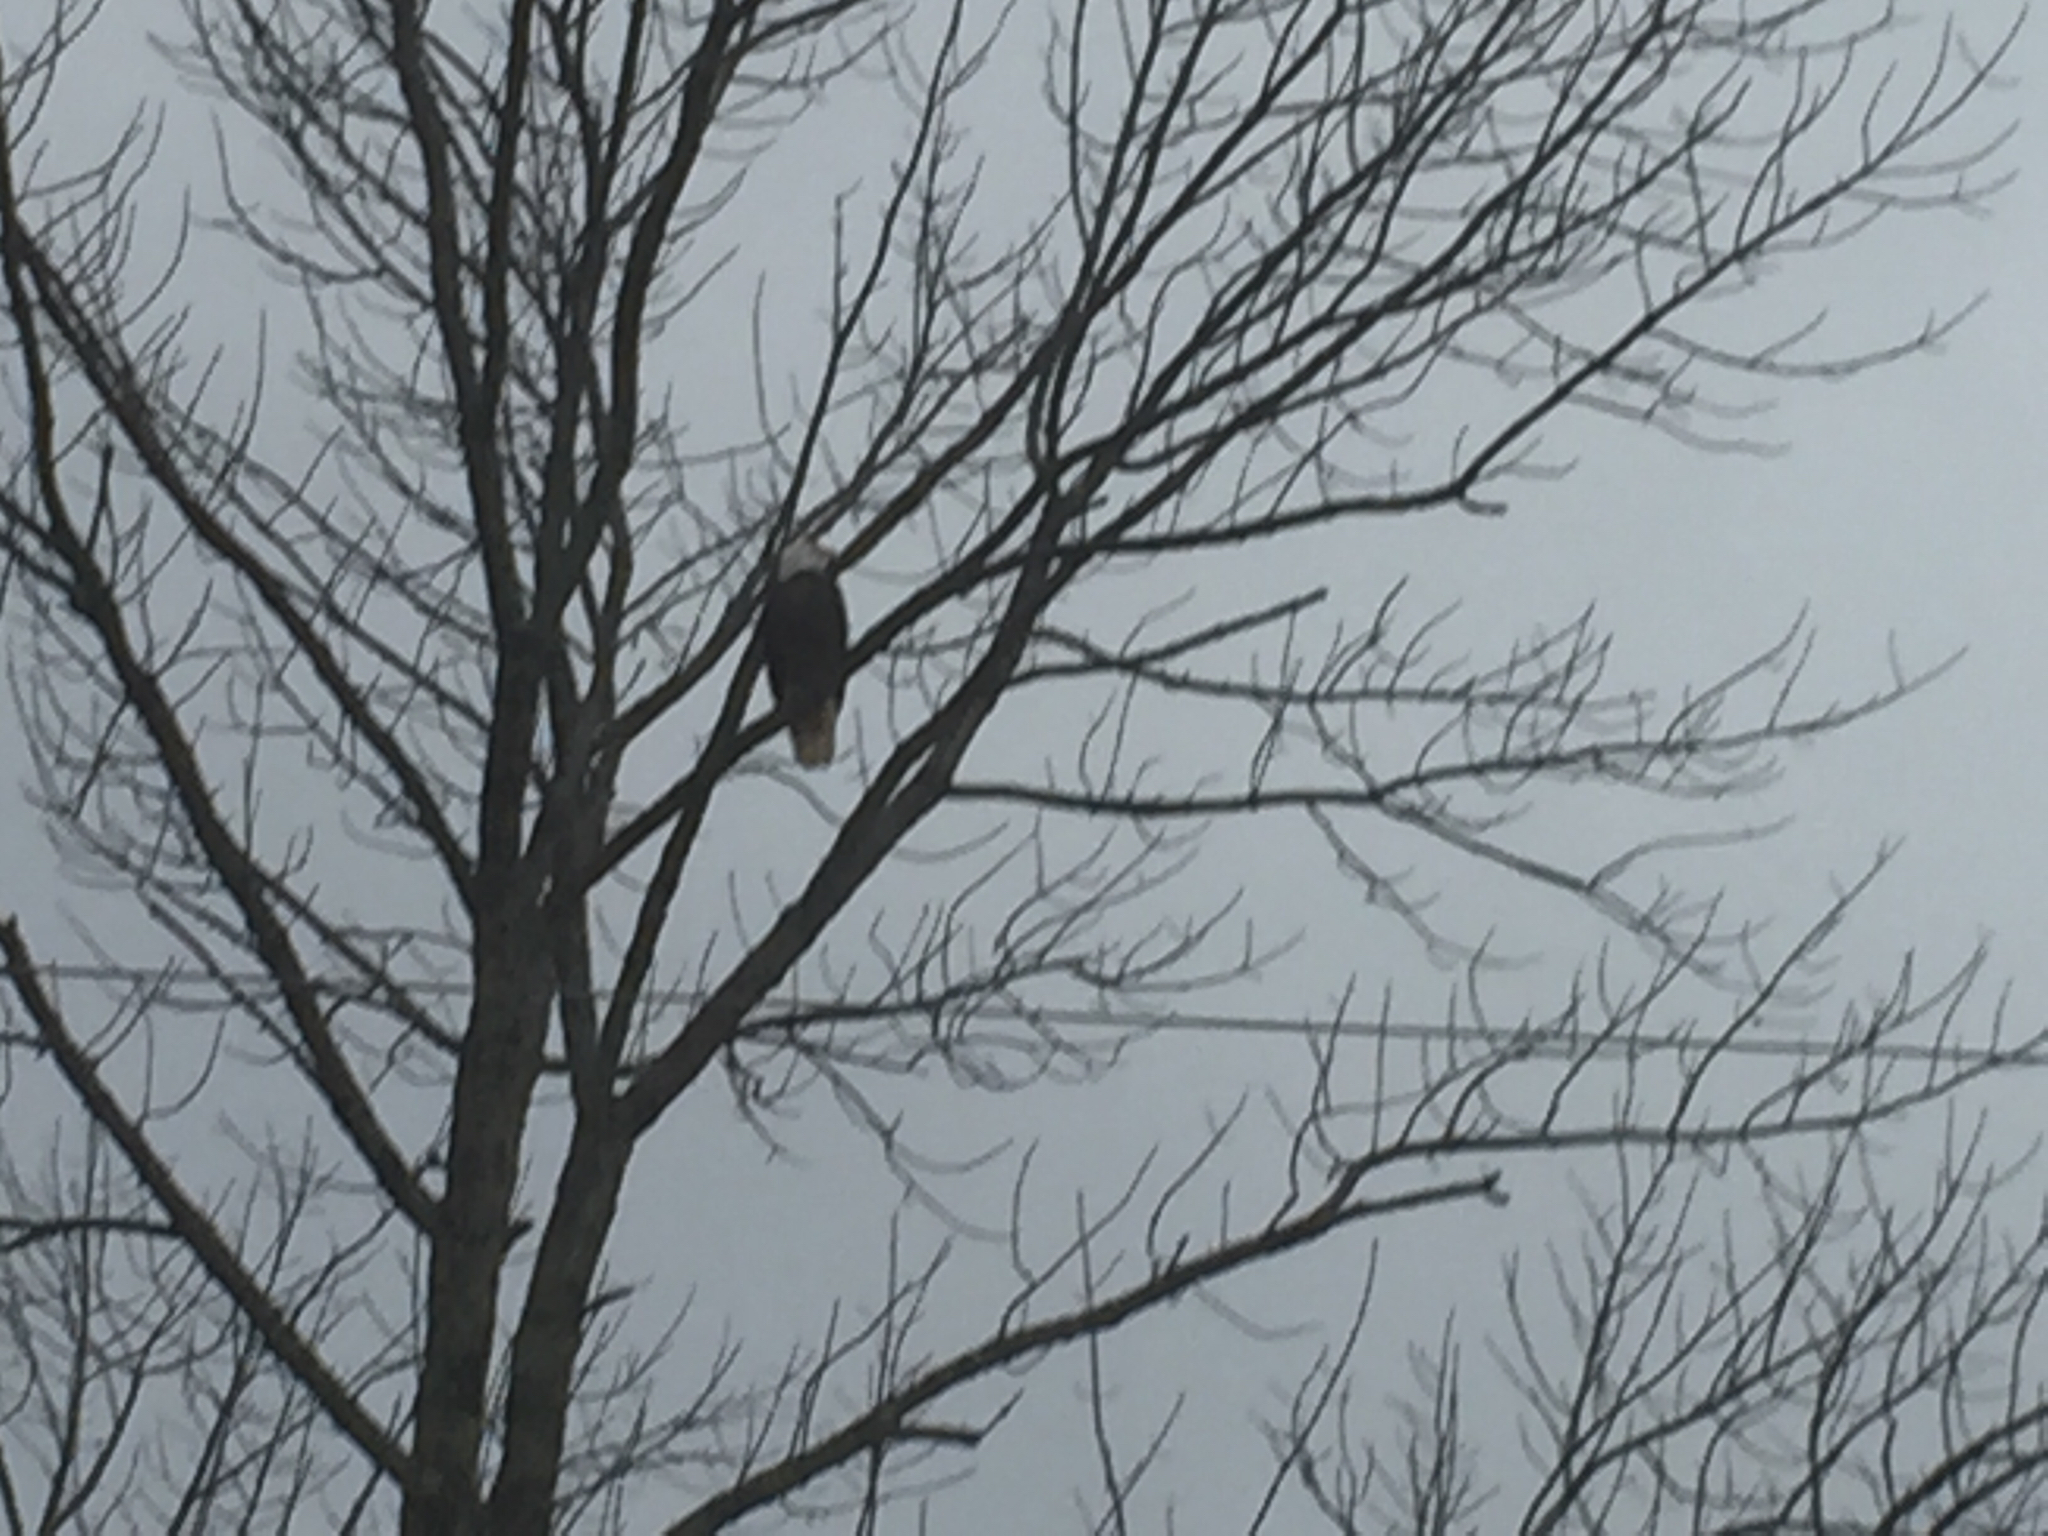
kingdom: Animalia
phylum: Chordata
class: Aves
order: Accipitriformes
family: Accipitridae
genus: Haliaeetus
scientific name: Haliaeetus leucocephalus
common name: Bald eagle
